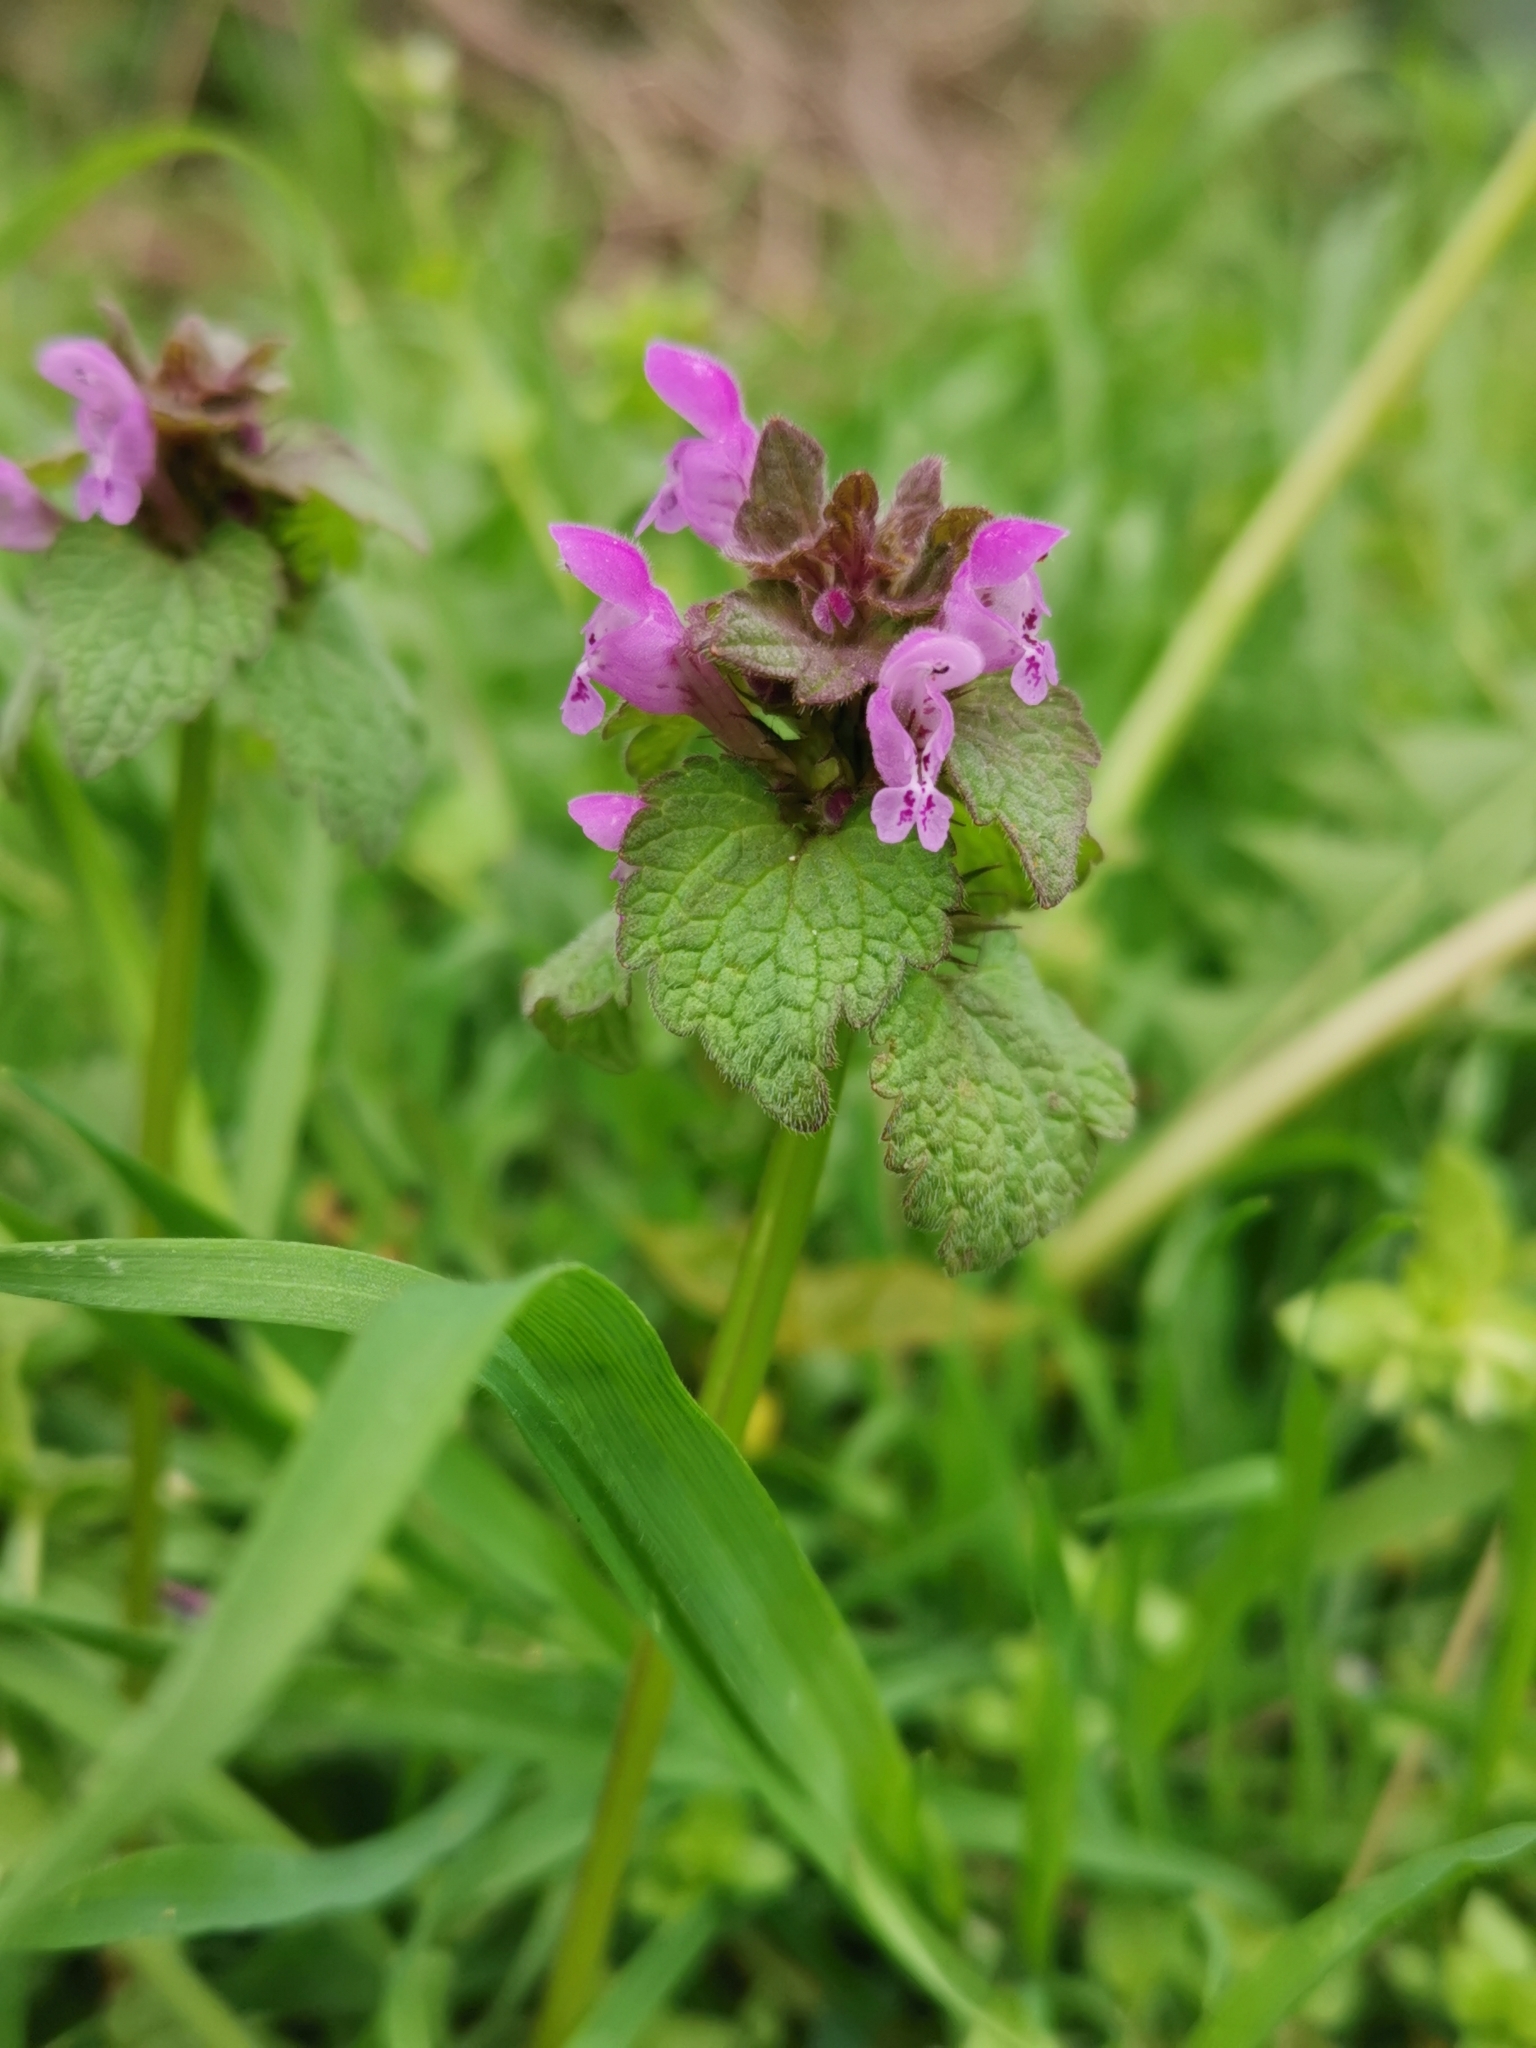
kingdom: Plantae
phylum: Tracheophyta
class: Magnoliopsida
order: Lamiales
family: Lamiaceae
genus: Lamium
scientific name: Lamium purpureum
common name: Red dead-nettle
